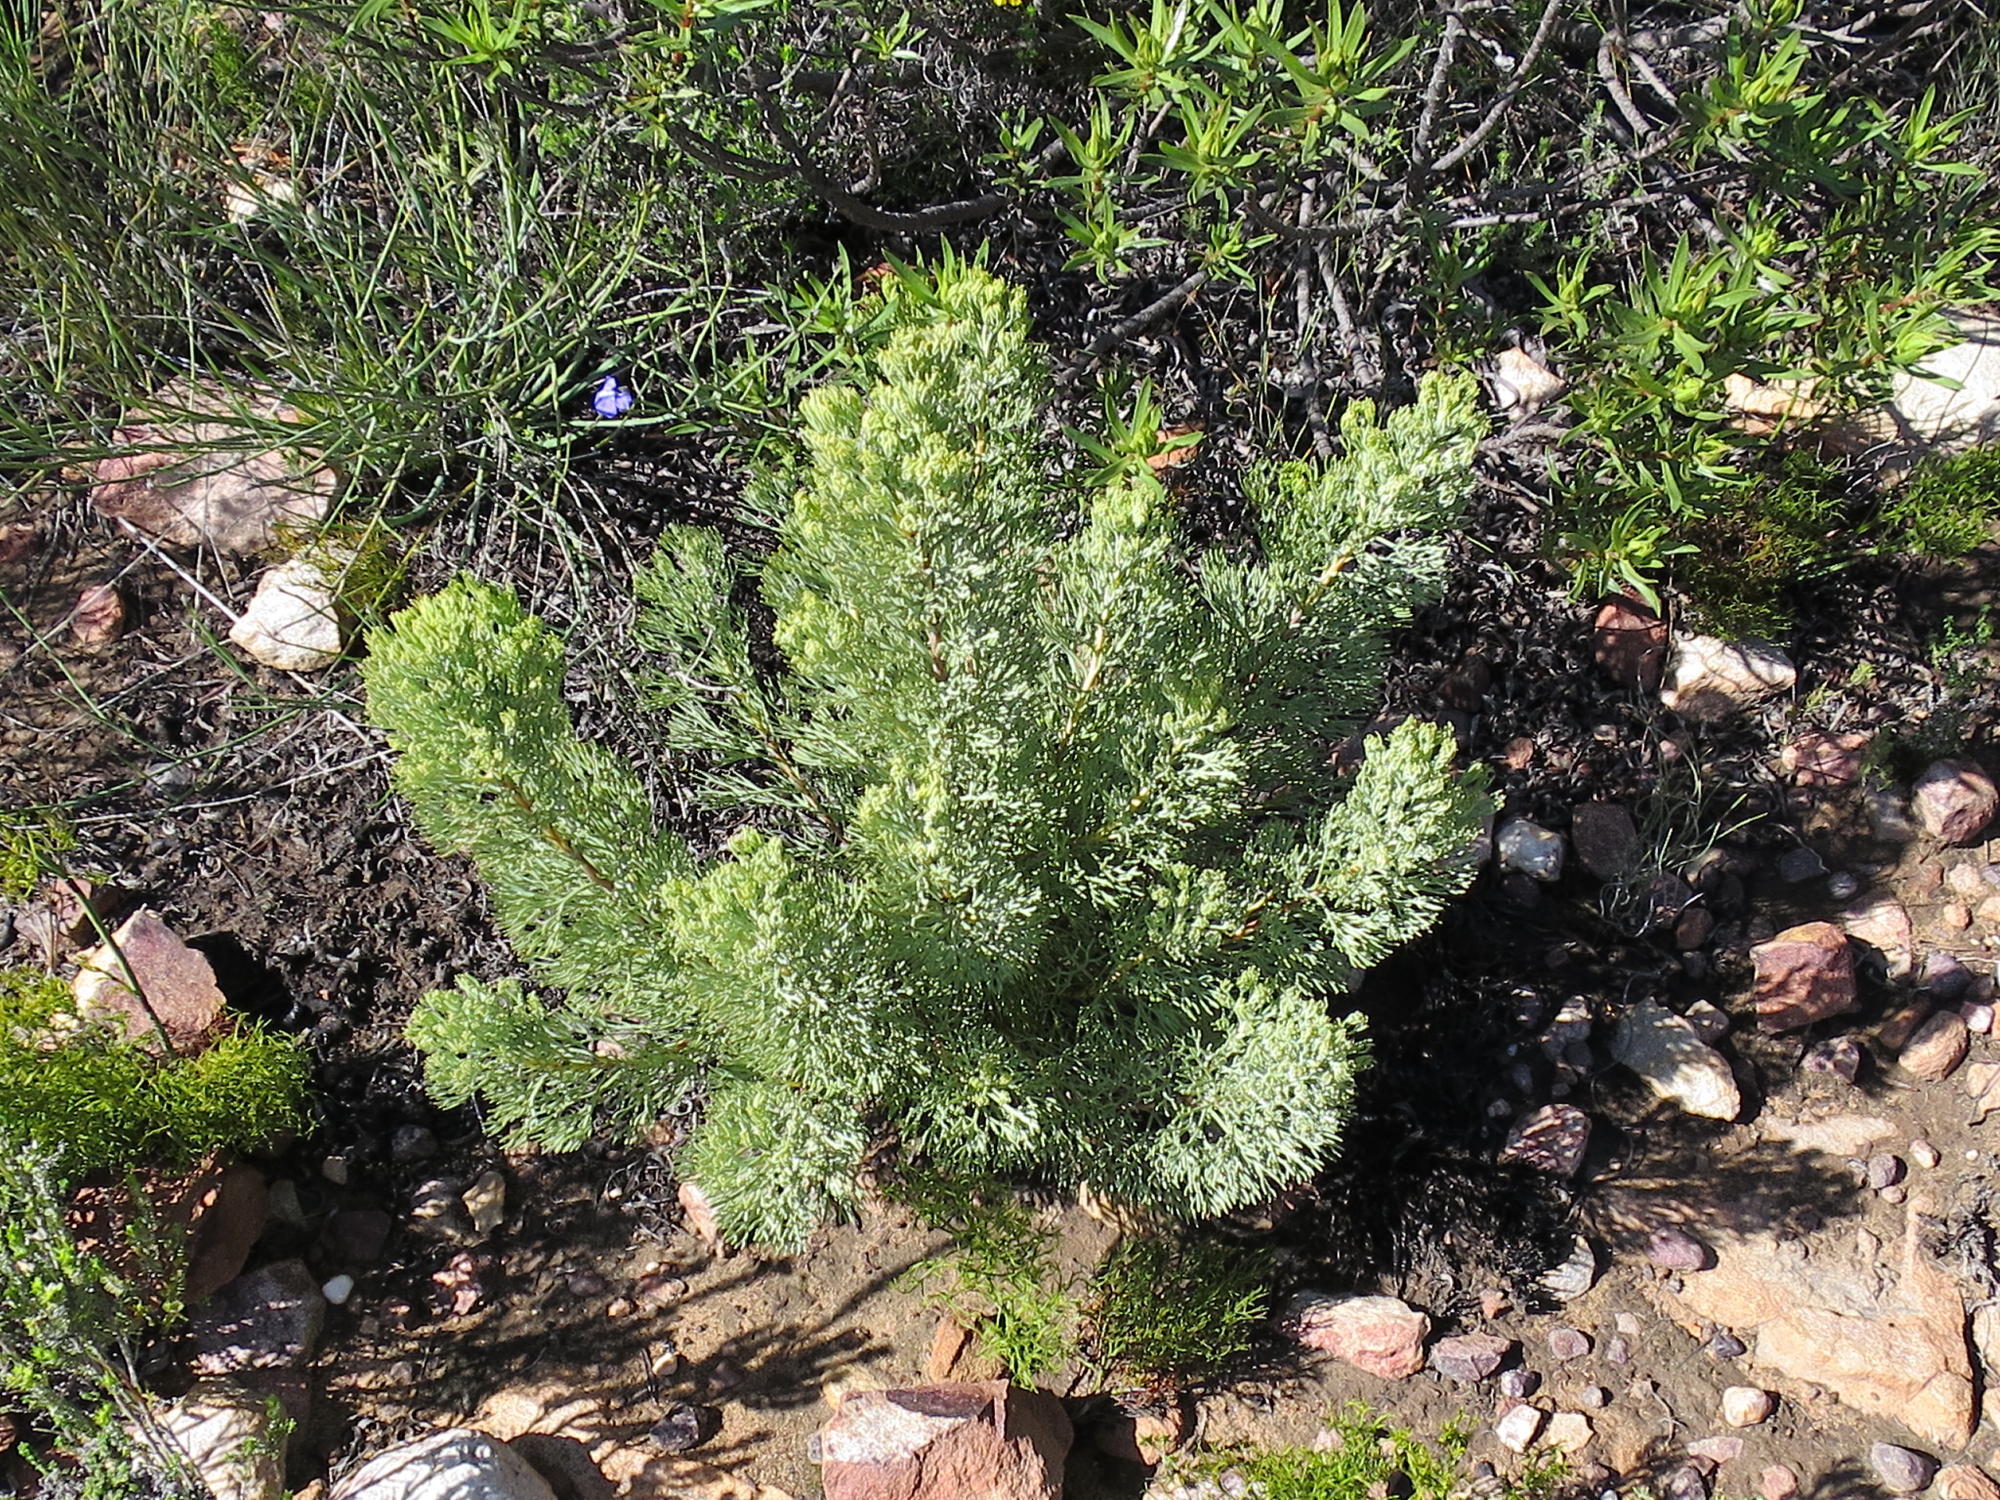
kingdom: Plantae
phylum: Tracheophyta
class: Magnoliopsida
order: Proteales
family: Proteaceae
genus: Paranomus
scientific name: Paranomus roodebergensis
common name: Honey-scented sceptre
